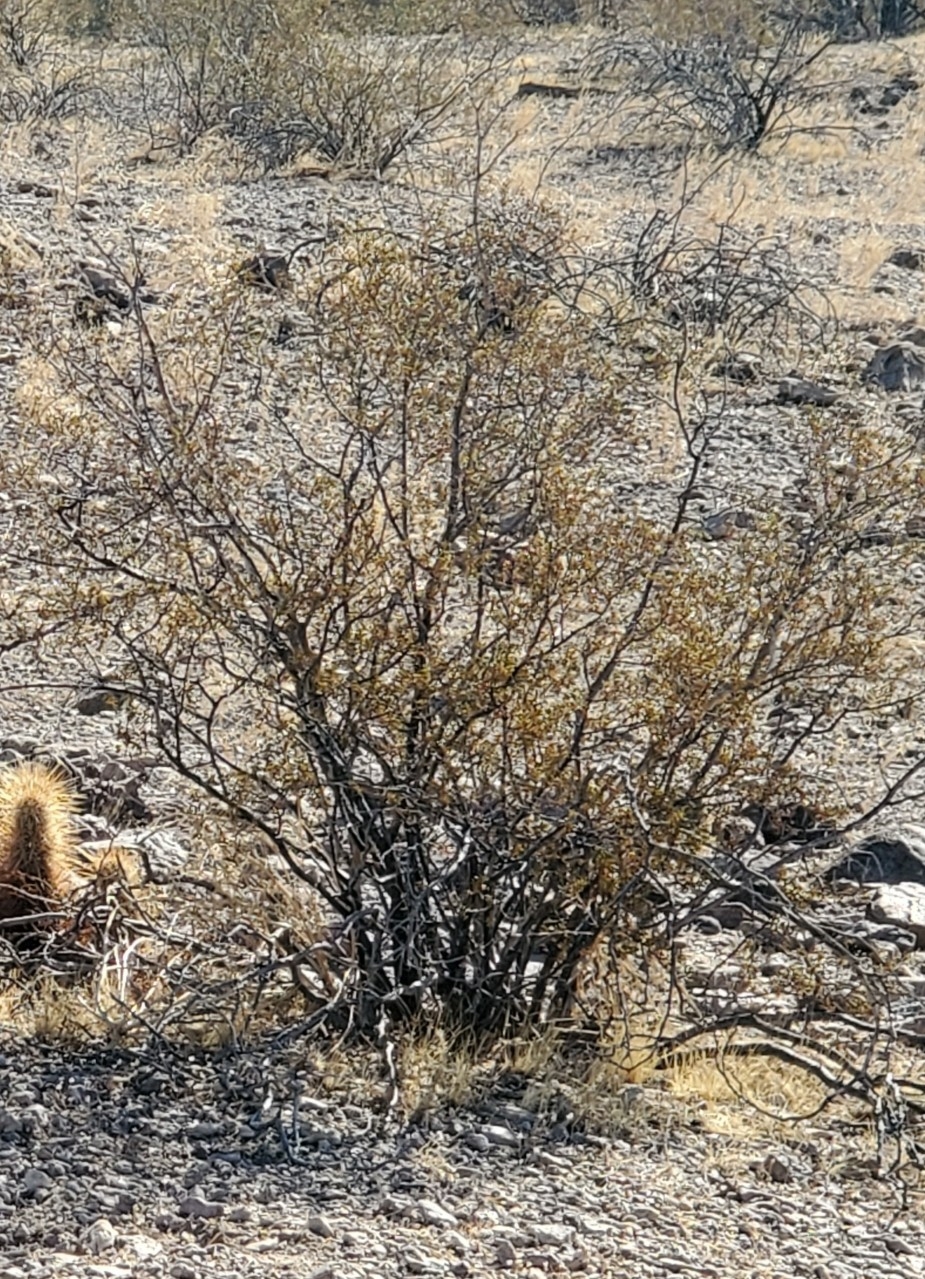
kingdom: Plantae
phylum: Tracheophyta
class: Magnoliopsida
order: Zygophyllales
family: Zygophyllaceae
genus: Larrea
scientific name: Larrea tridentata
